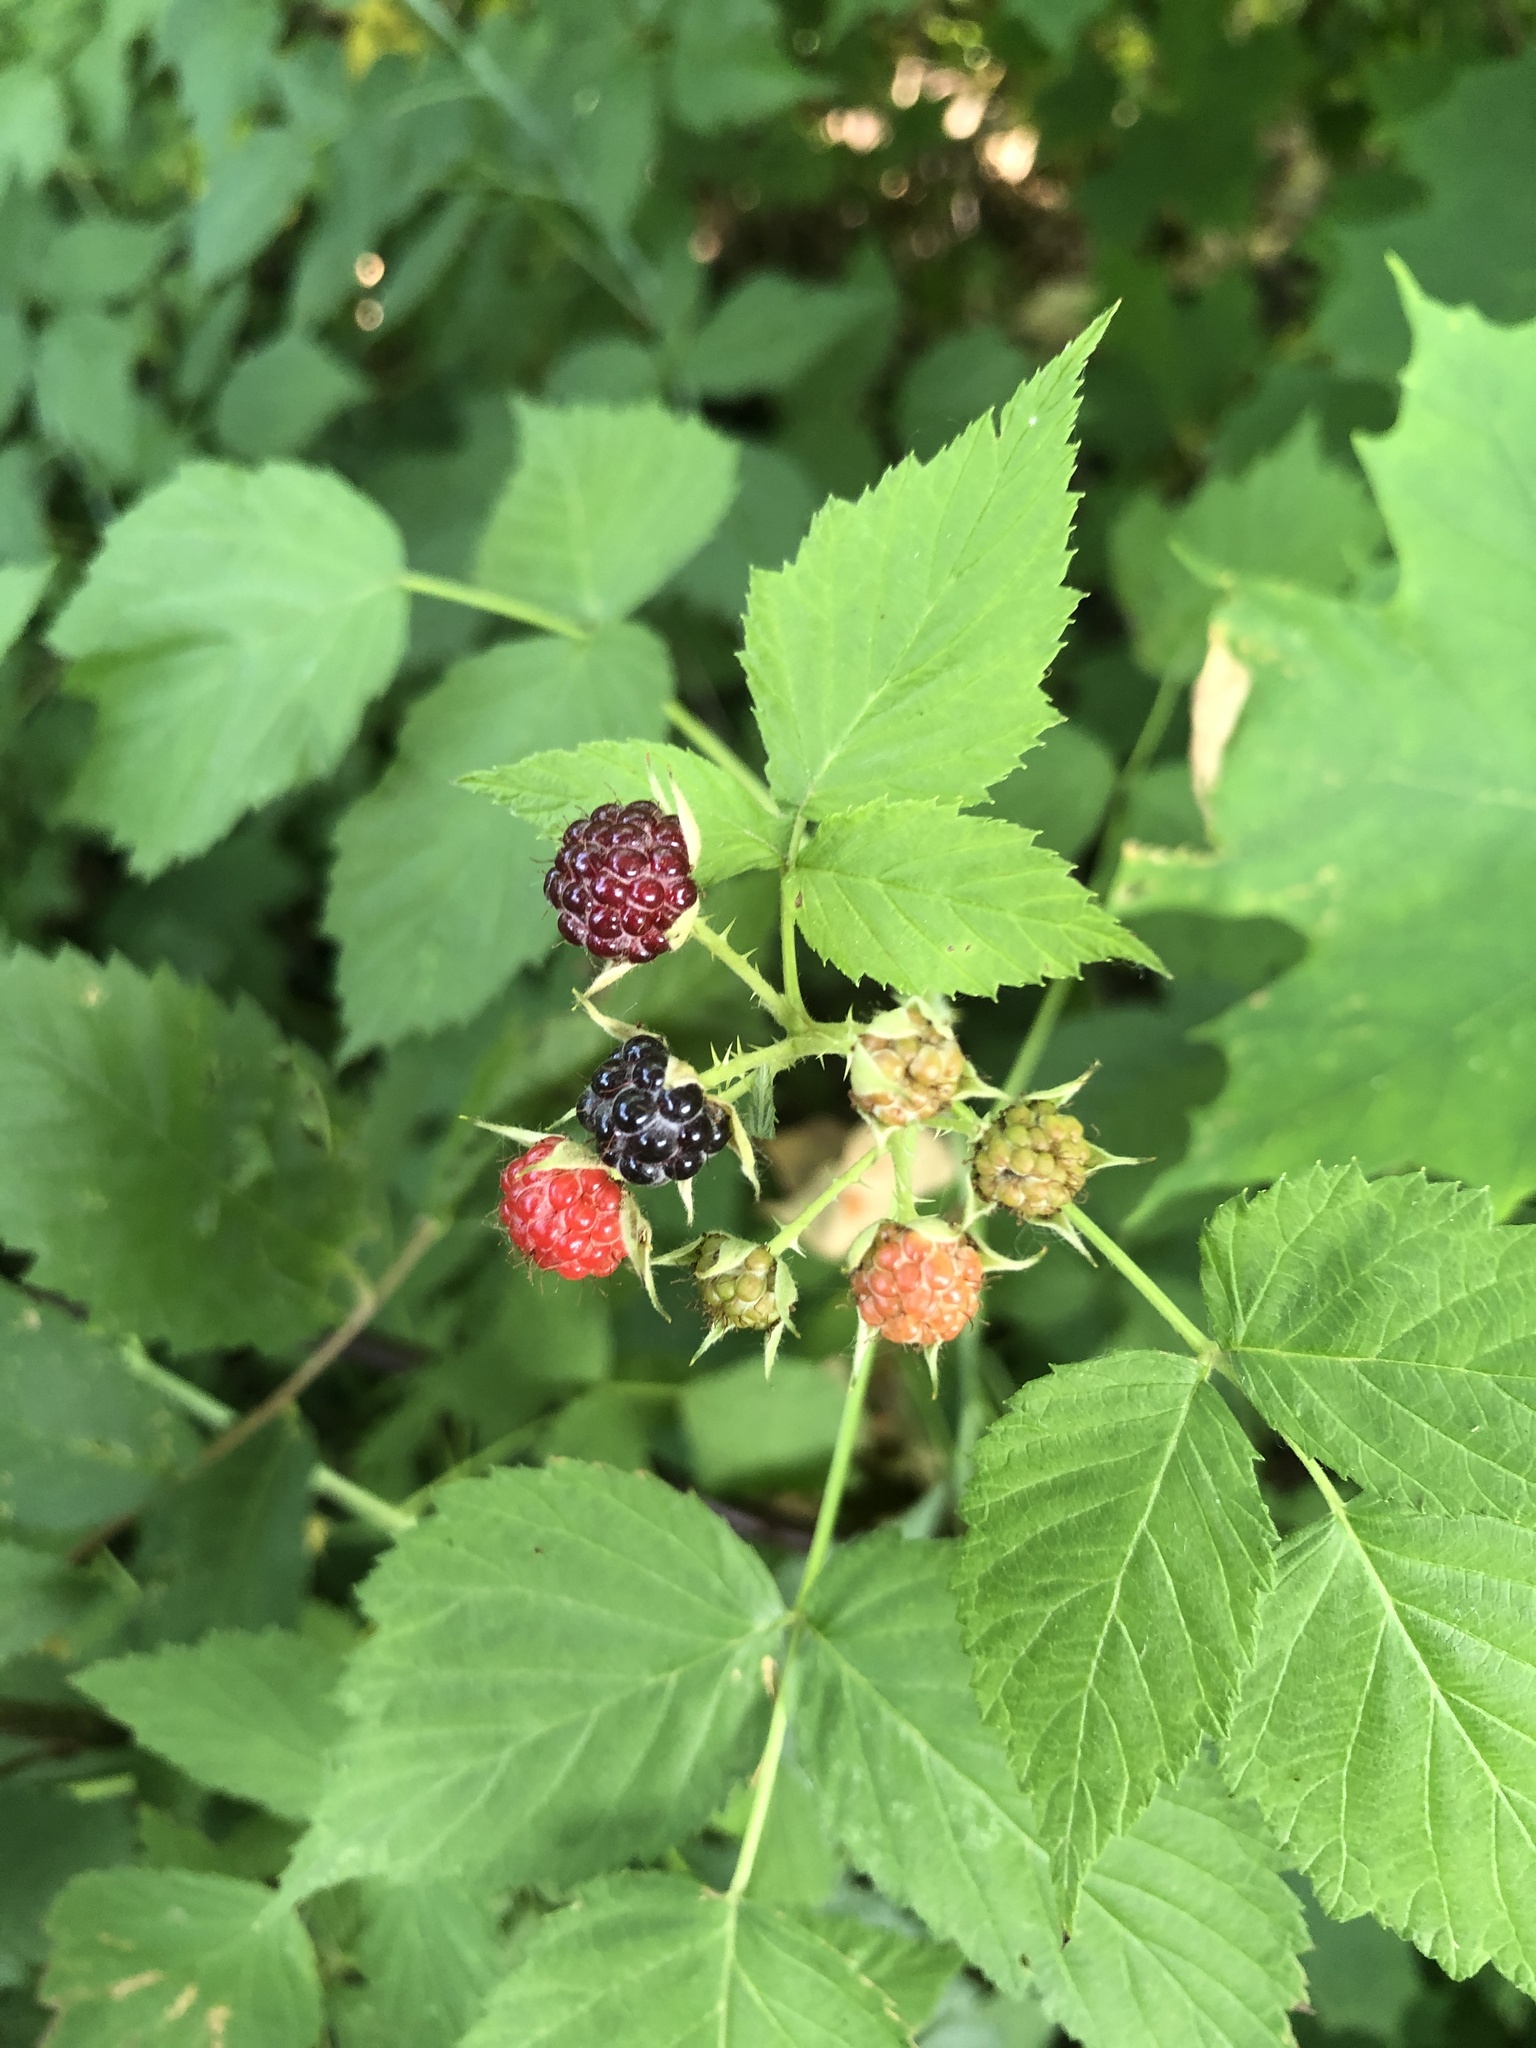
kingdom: Plantae
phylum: Tracheophyta
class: Magnoliopsida
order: Rosales
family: Rosaceae
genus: Rubus
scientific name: Rubus occidentalis
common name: Black raspberry
